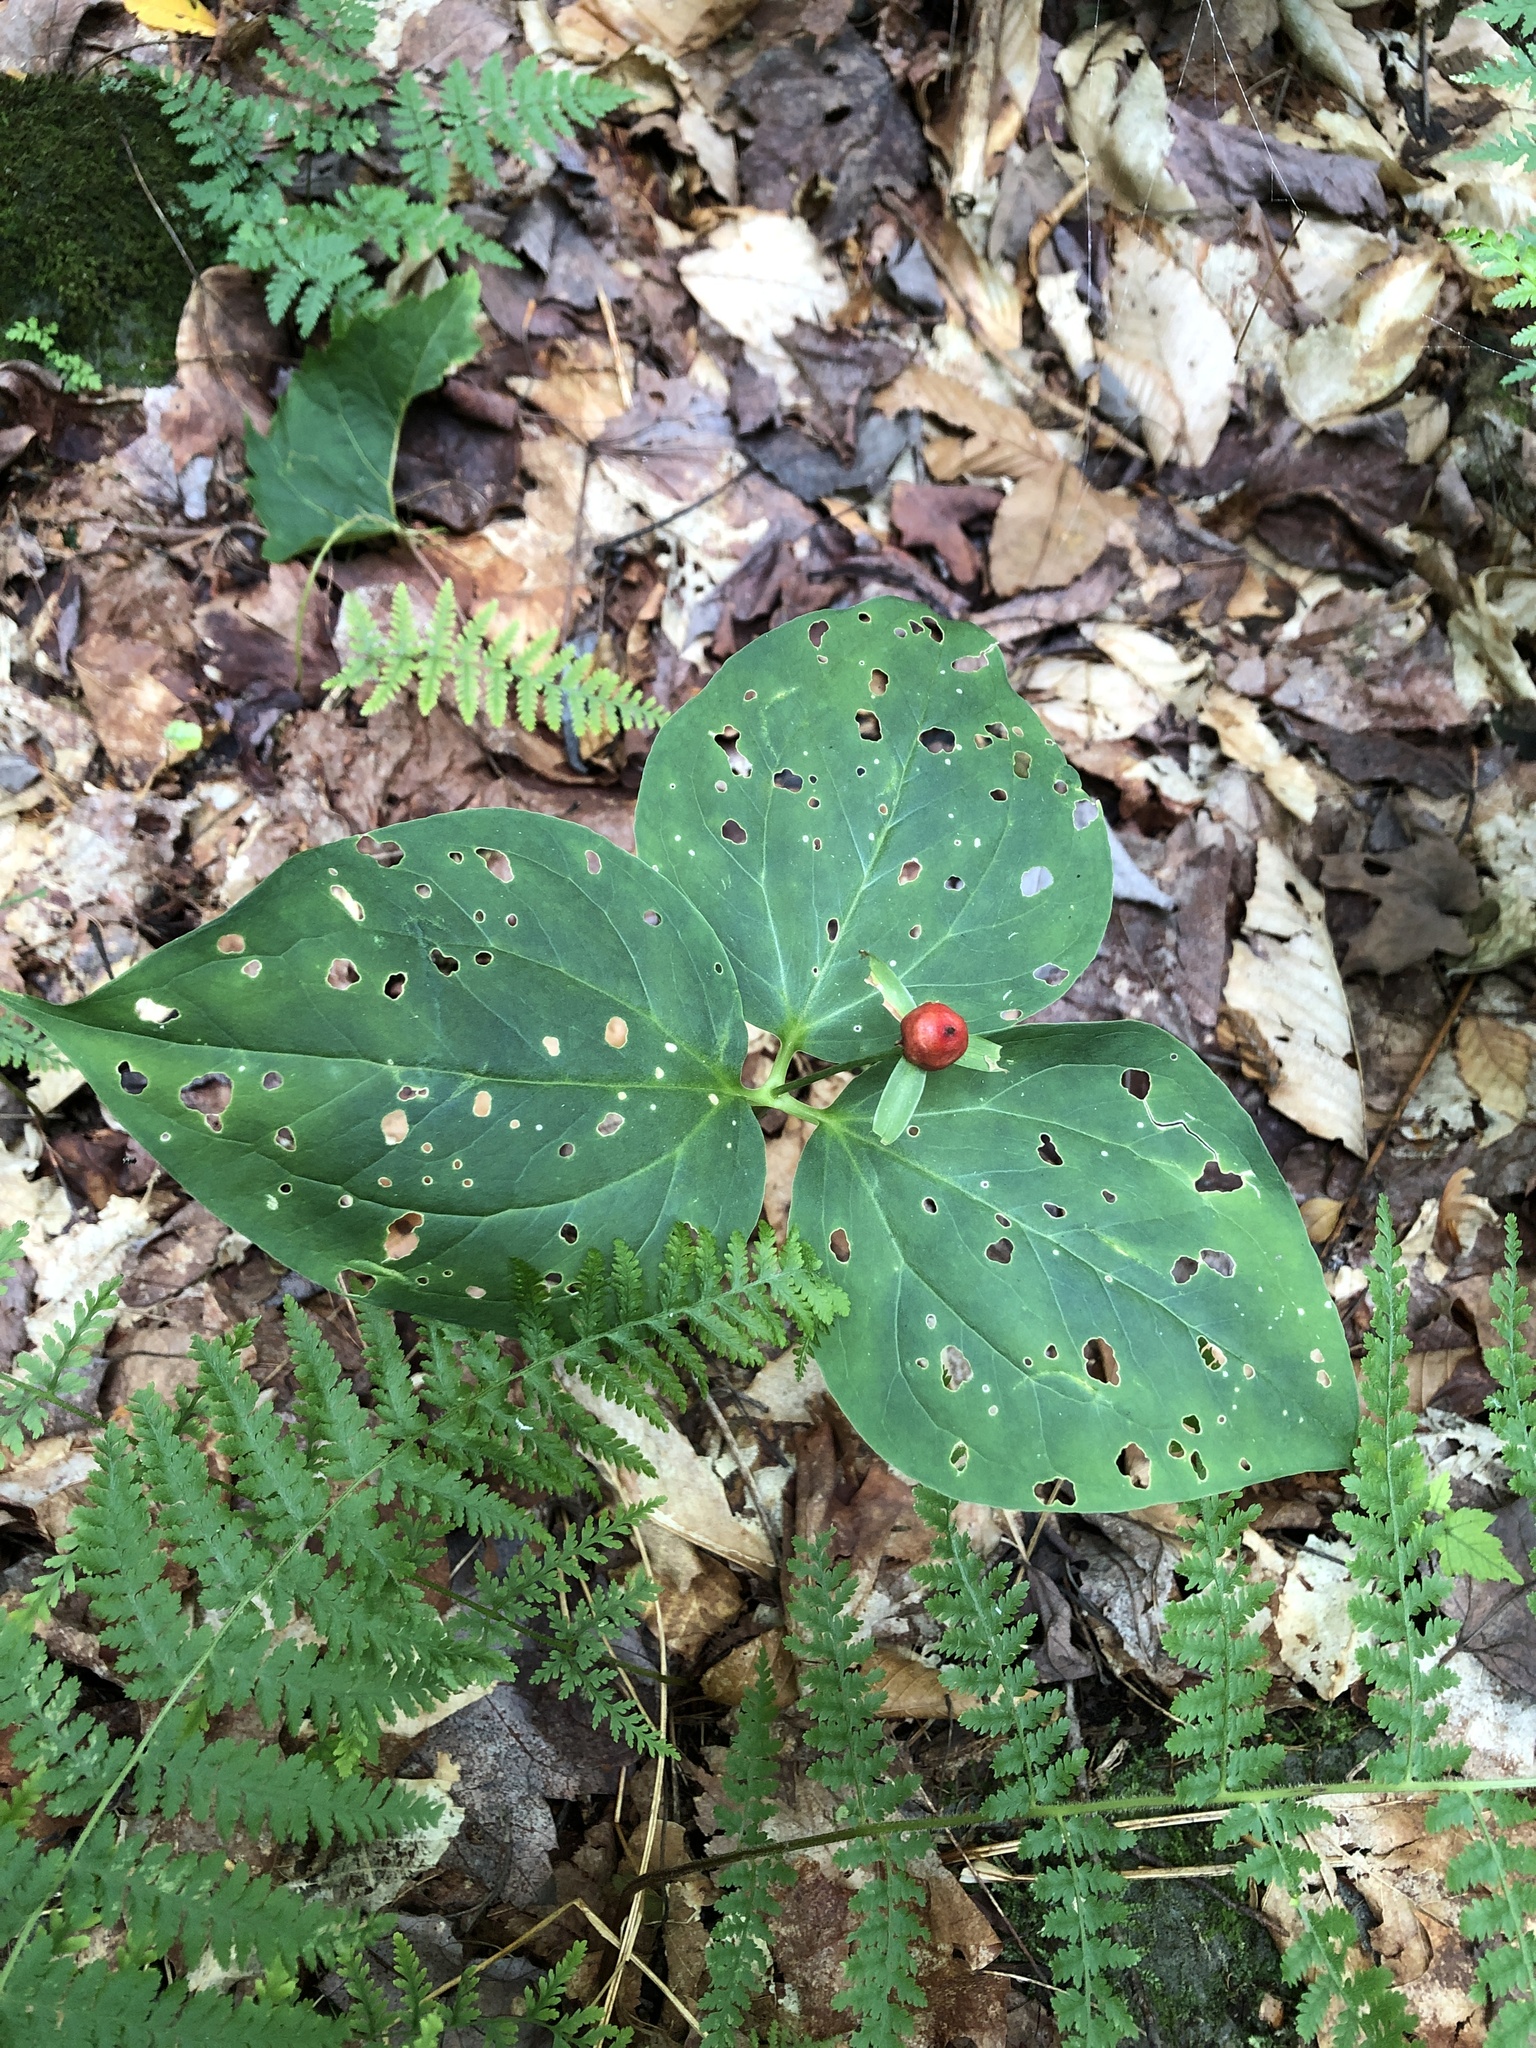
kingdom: Plantae
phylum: Tracheophyta
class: Liliopsida
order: Liliales
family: Melanthiaceae
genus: Trillium
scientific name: Trillium undulatum
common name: Paint trillium
